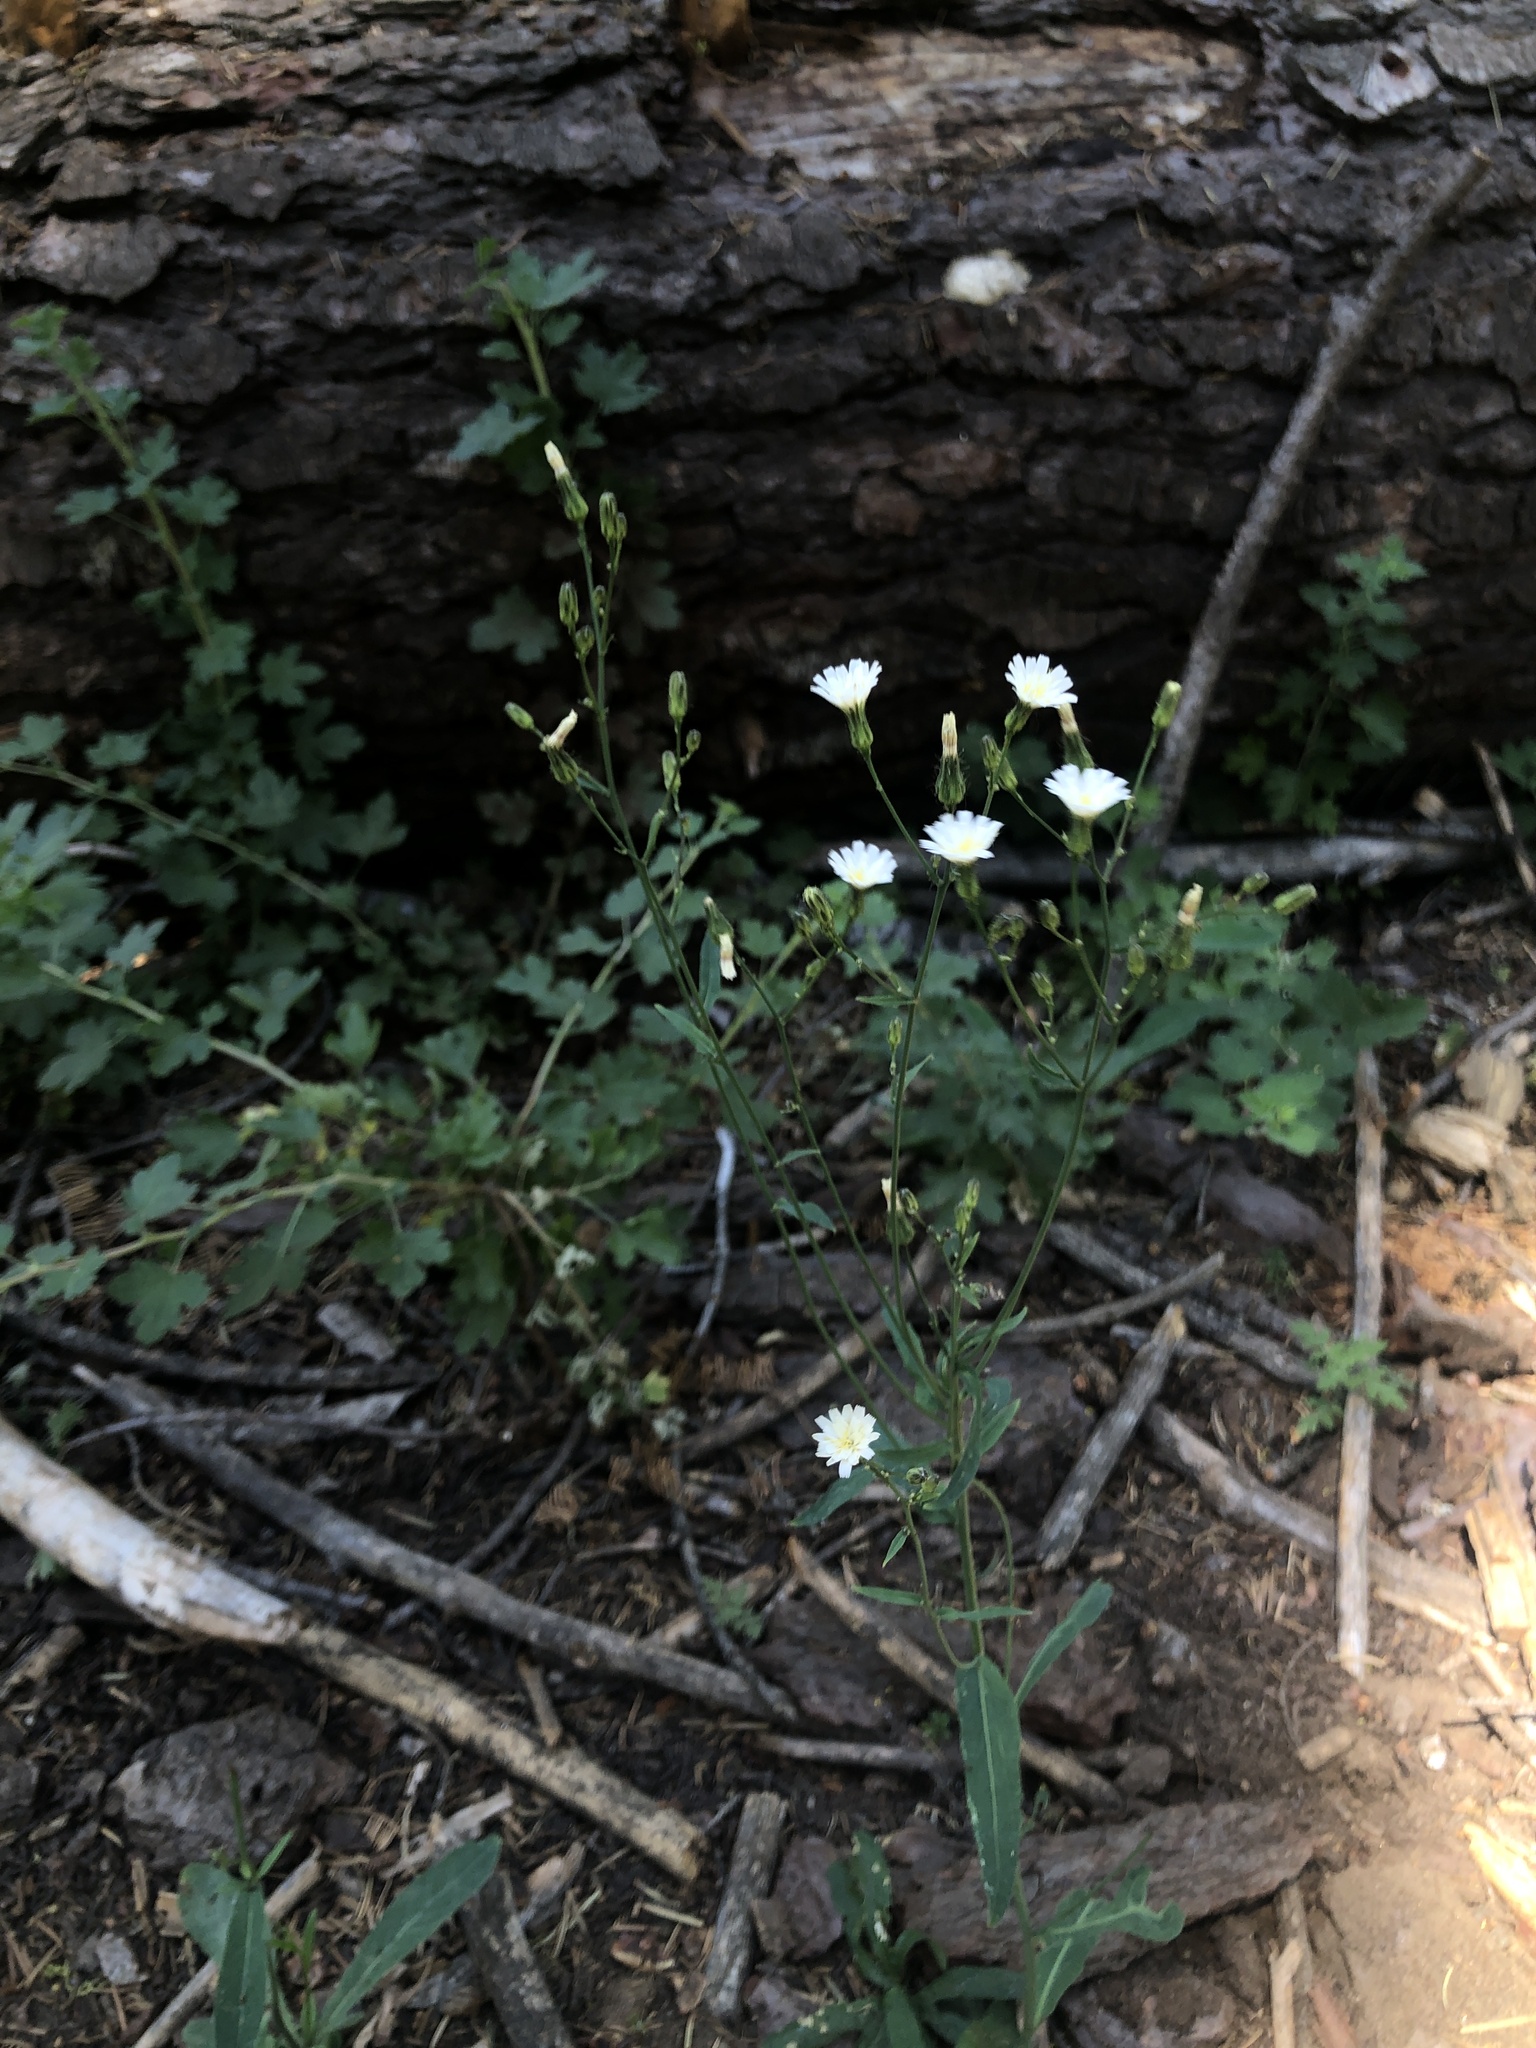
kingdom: Plantae
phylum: Tracheophyta
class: Magnoliopsida
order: Asterales
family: Asteraceae
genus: Hieracium
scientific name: Hieracium albiflorum
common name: White hawkweed
